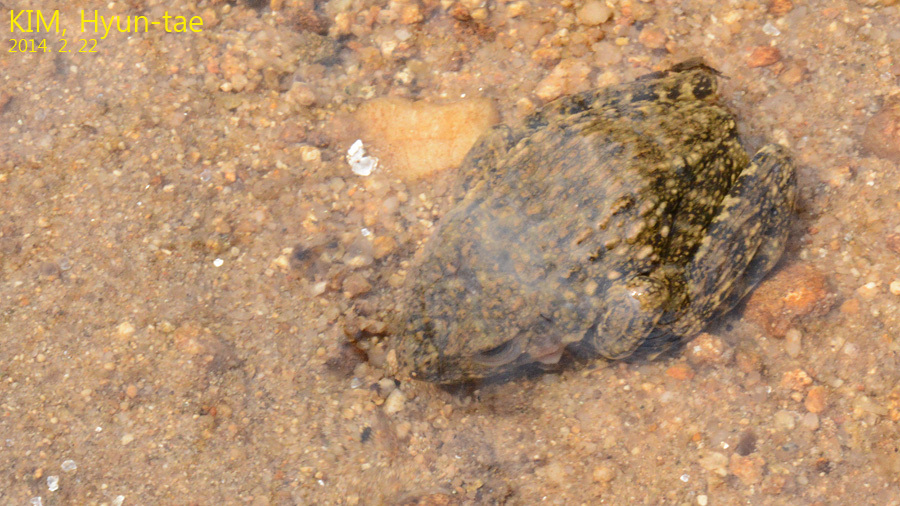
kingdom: Animalia
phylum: Chordata
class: Amphibia
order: Anura
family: Ranidae
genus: Glandirana
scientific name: Glandirana emeljanovi
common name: Northeast china rough-skinned frog
